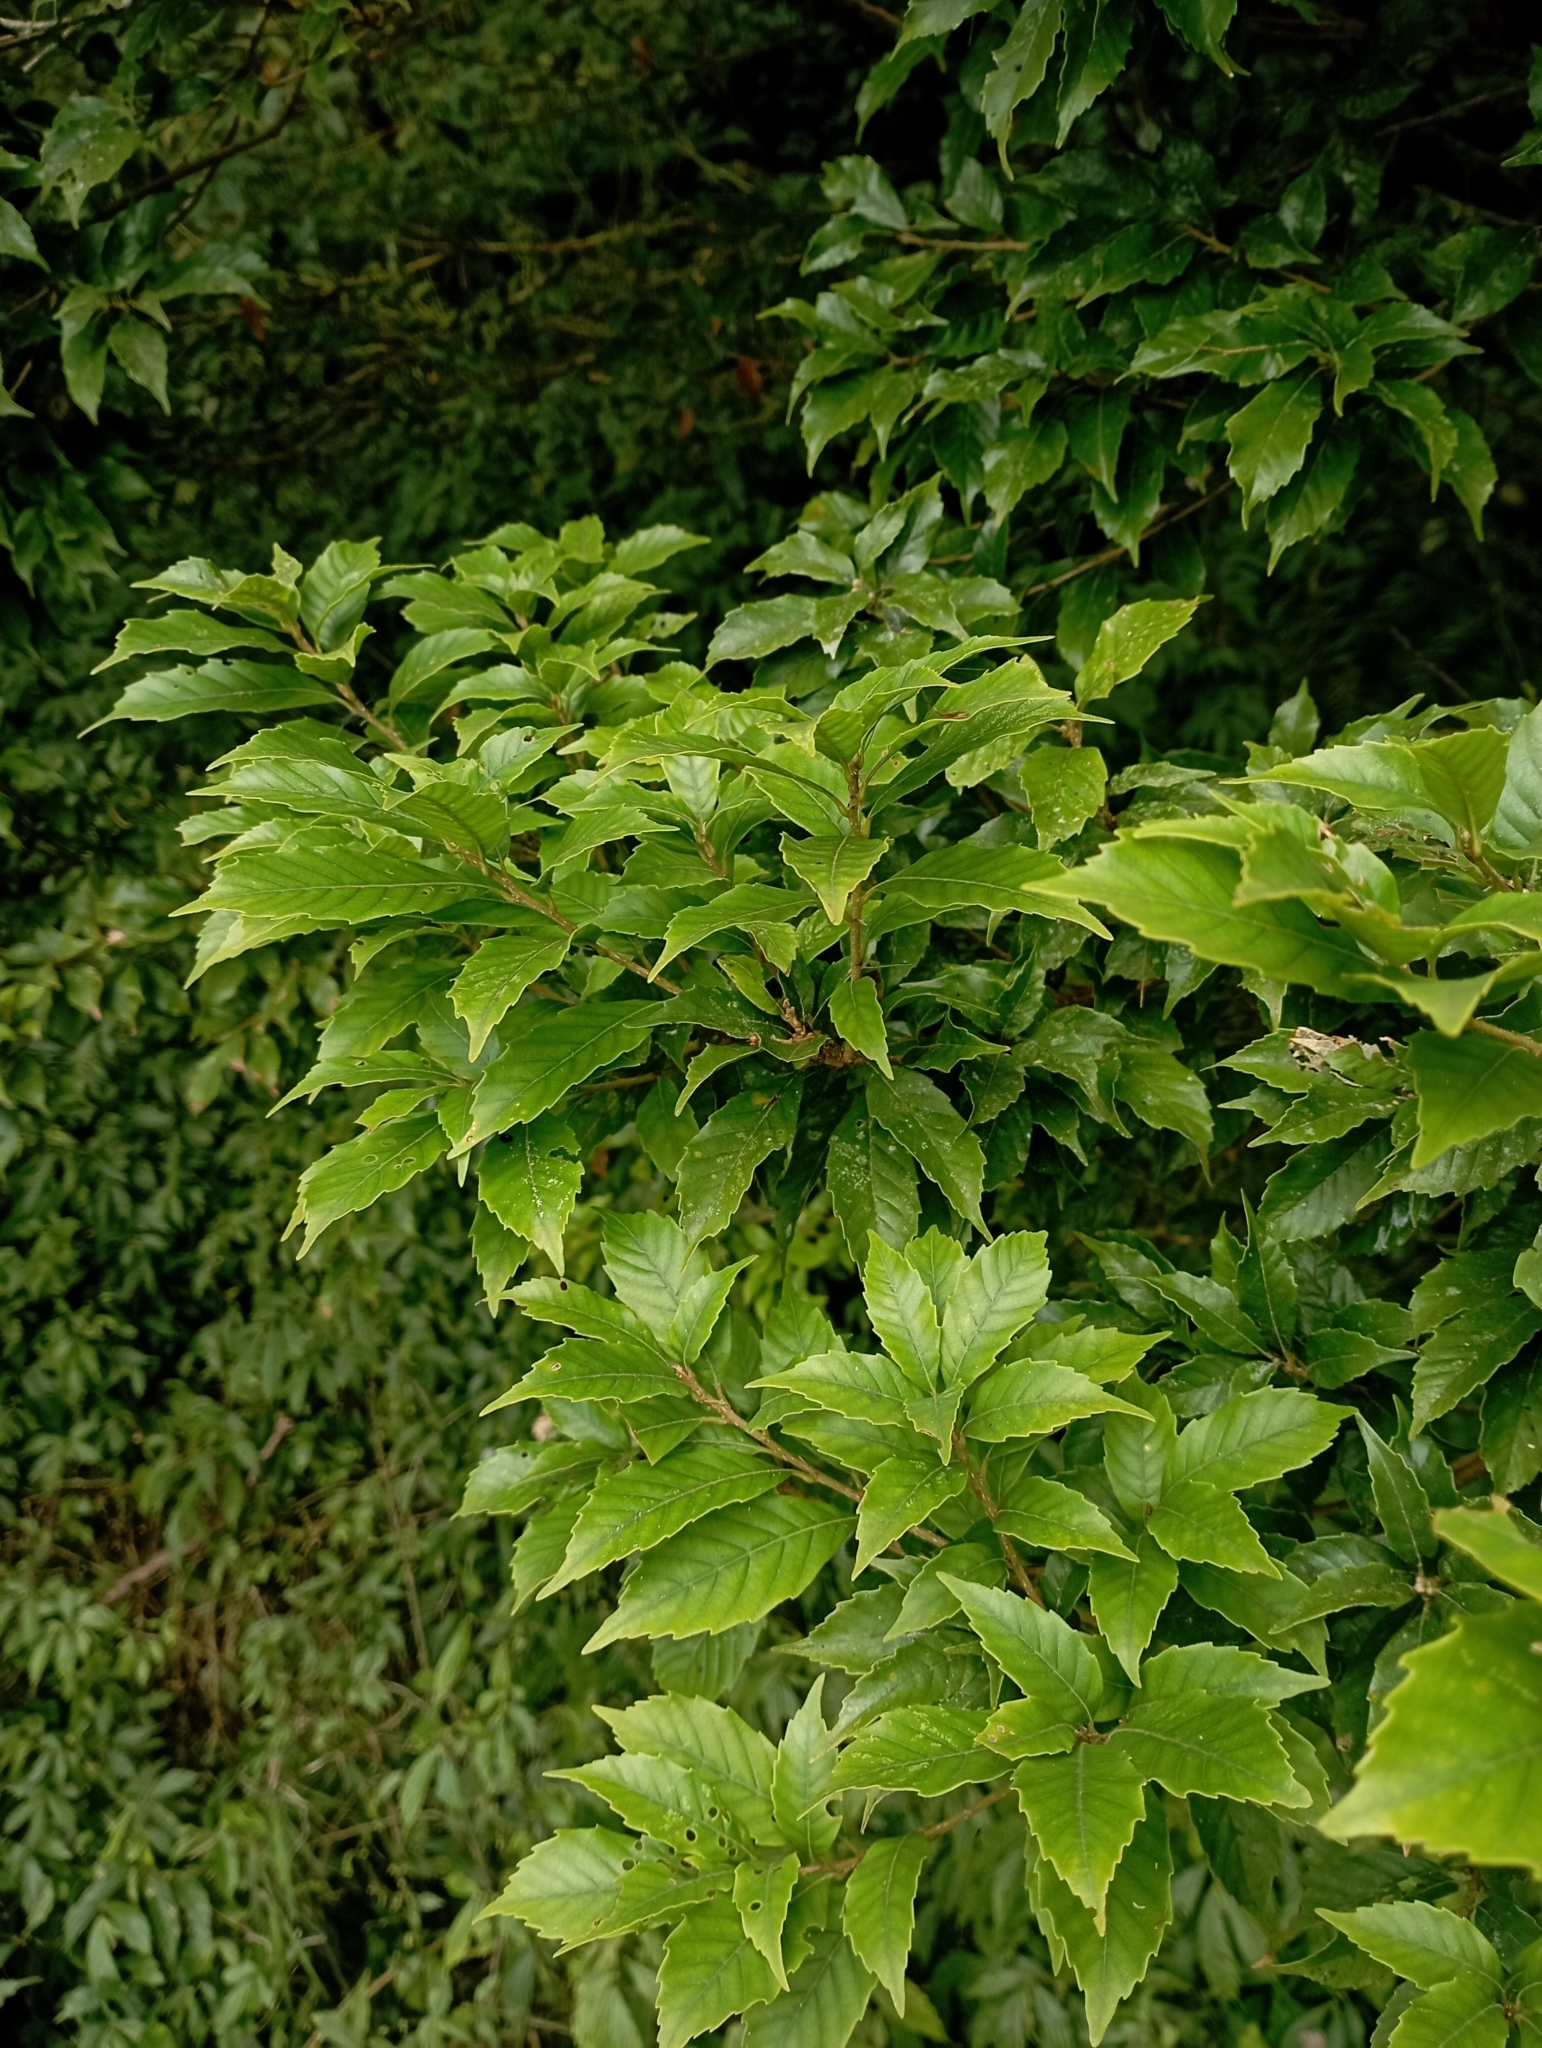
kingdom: Plantae
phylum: Tracheophyta
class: Magnoliopsida
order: Fagales
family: Fagaceae
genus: Lithocarpus
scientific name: Lithocarpus konishii
